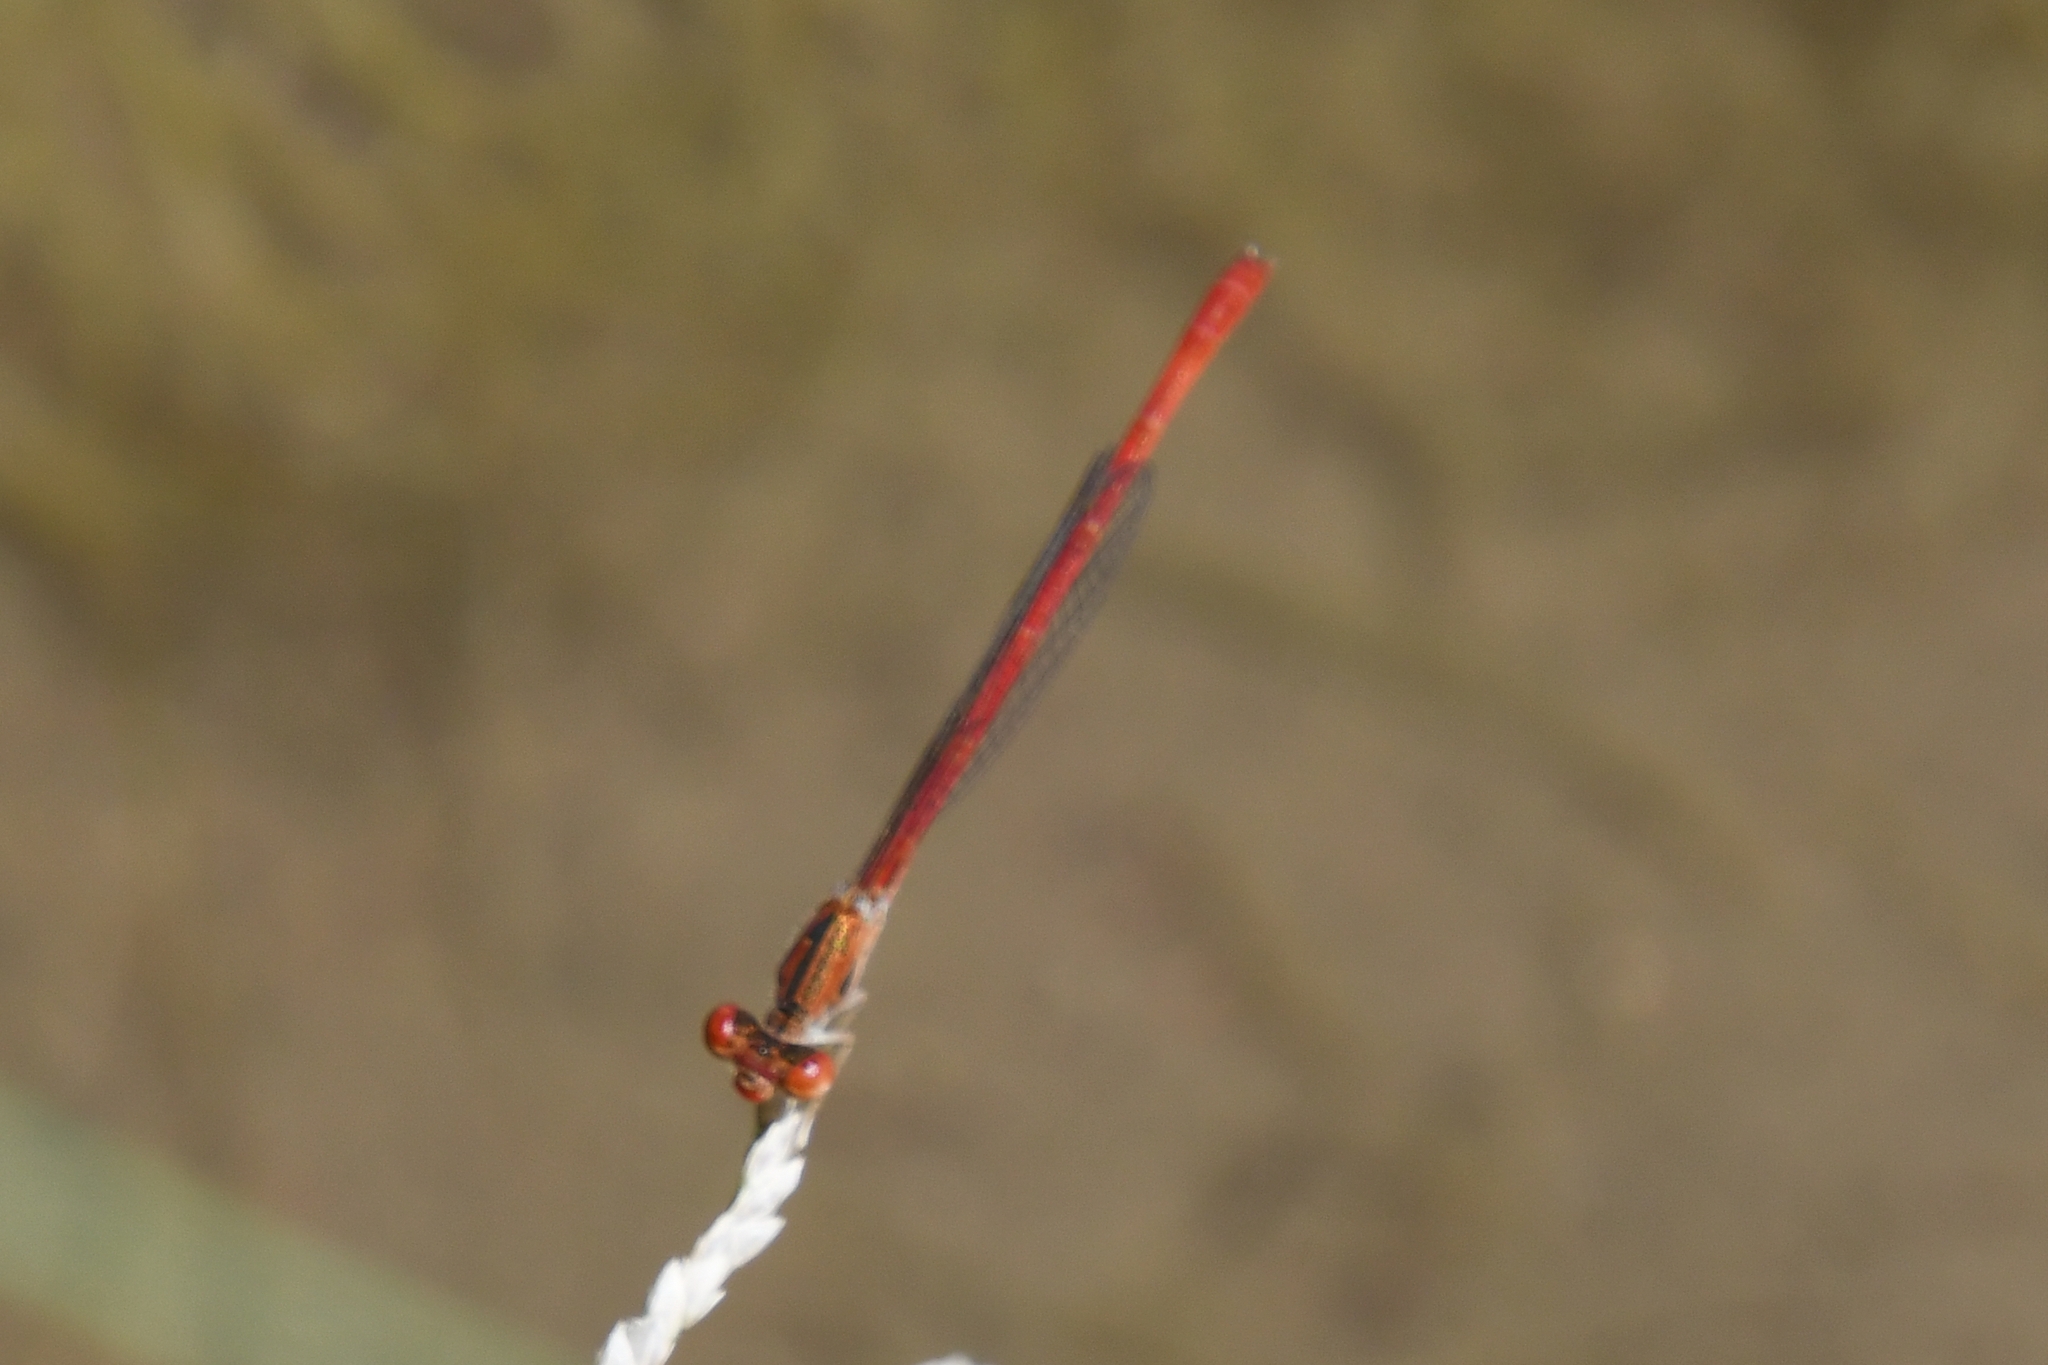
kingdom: Animalia
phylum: Arthropoda
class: Insecta
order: Odonata
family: Coenagrionidae
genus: Telebasis
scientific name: Telebasis salva
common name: Desert firetail
